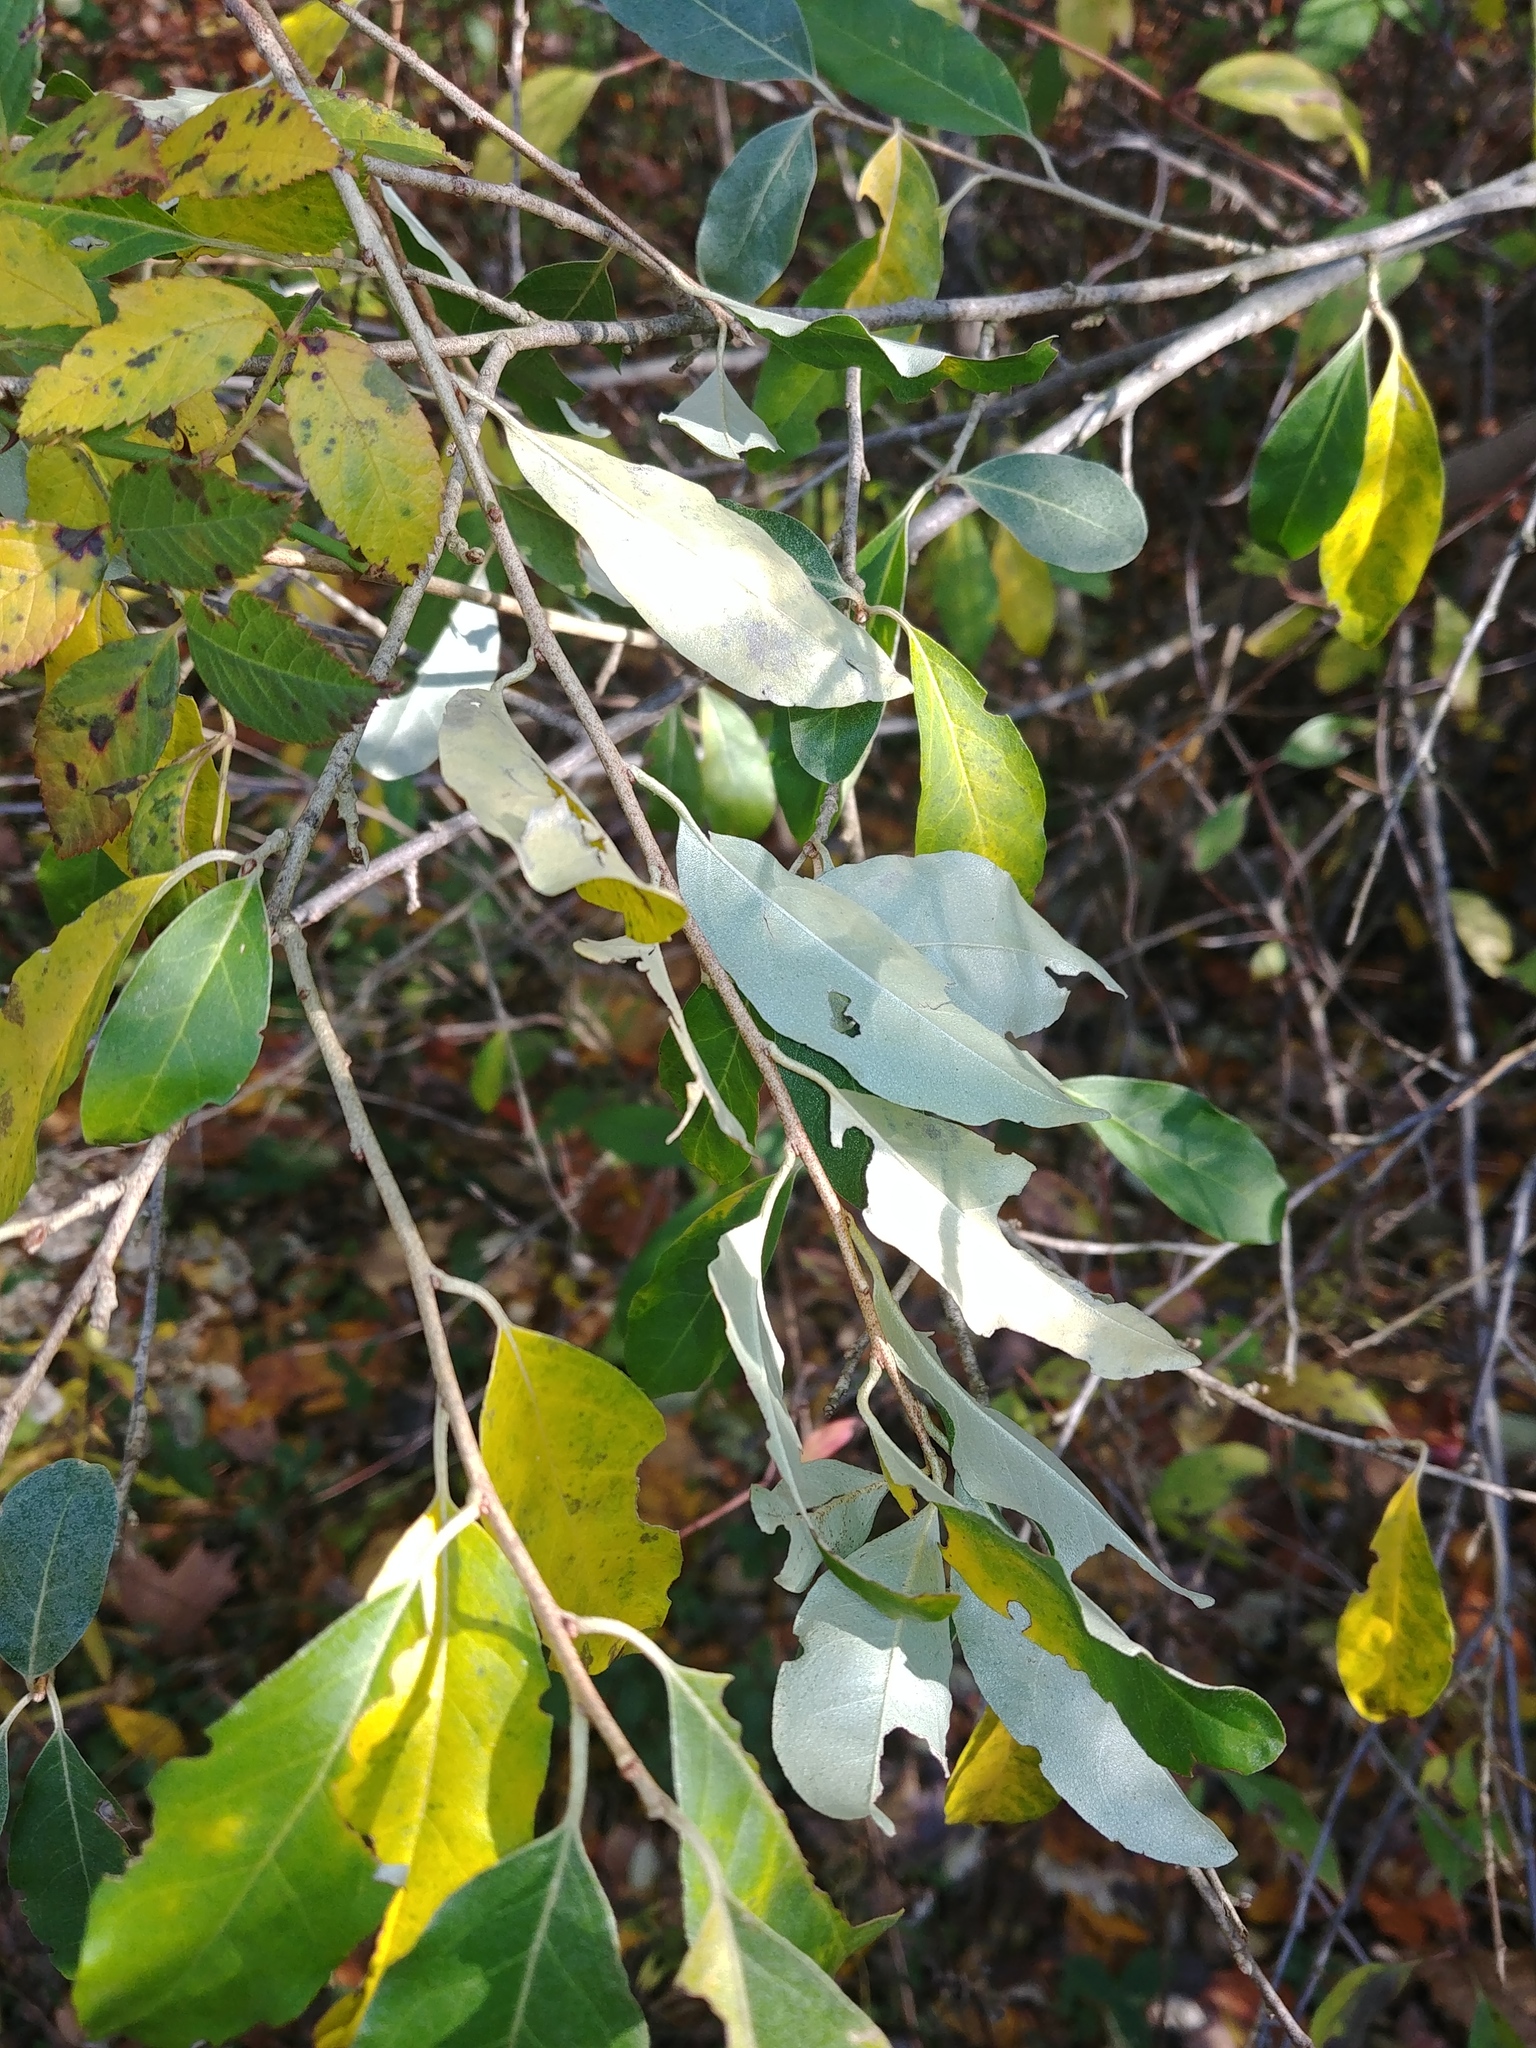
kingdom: Plantae
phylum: Tracheophyta
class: Magnoliopsida
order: Rosales
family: Elaeagnaceae
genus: Elaeagnus
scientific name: Elaeagnus umbellata
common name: Autumn olive
